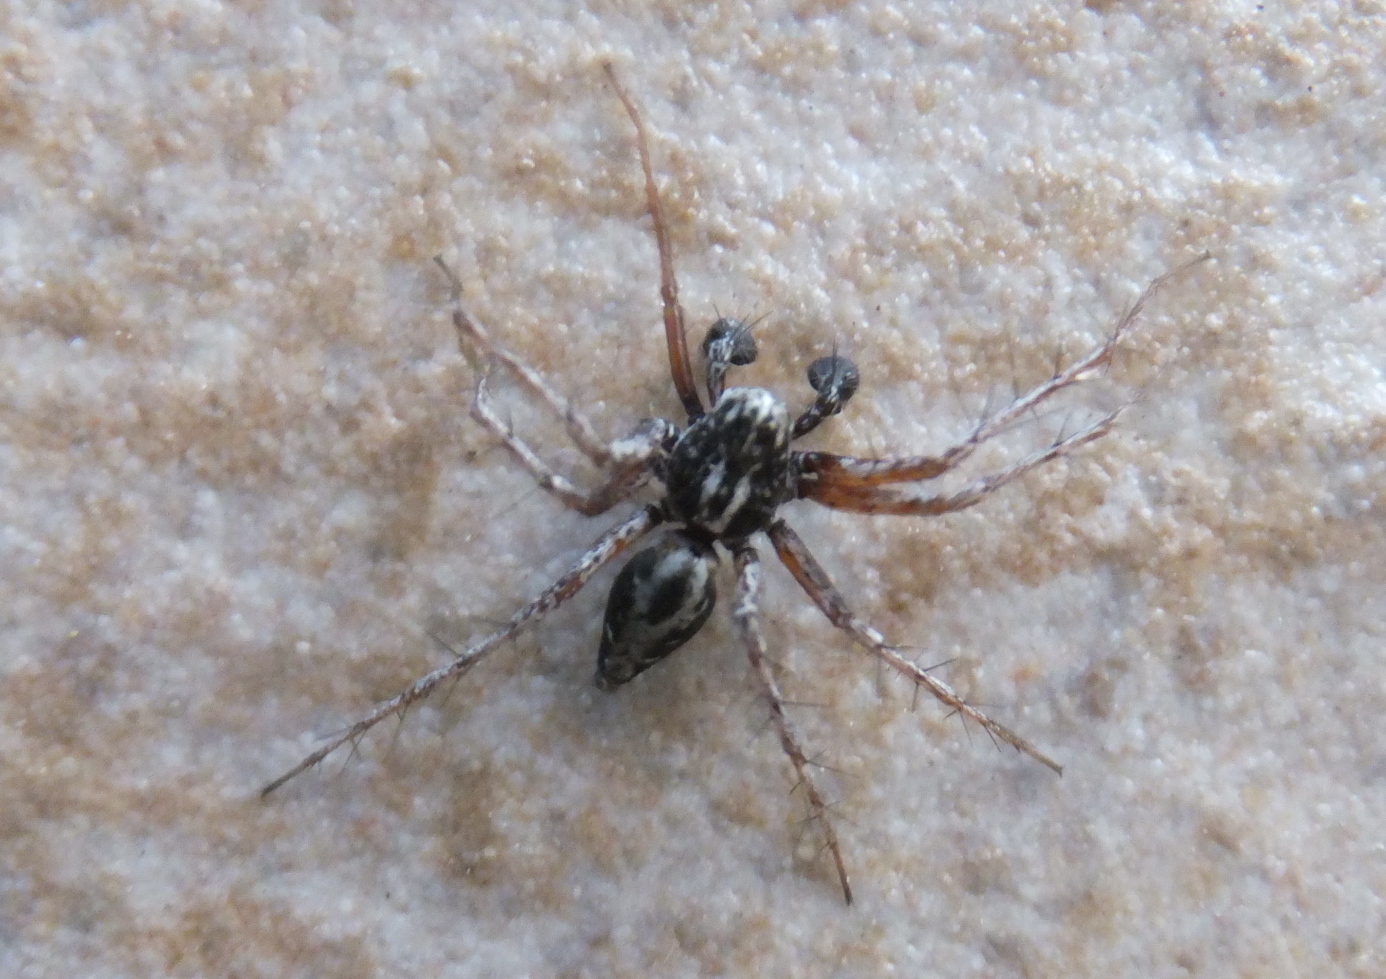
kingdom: Animalia
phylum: Arthropoda
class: Arachnida
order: Araneae
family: Oxyopidae
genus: Oxyopes
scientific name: Oxyopes heterophthalmus
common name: Lynx spider
